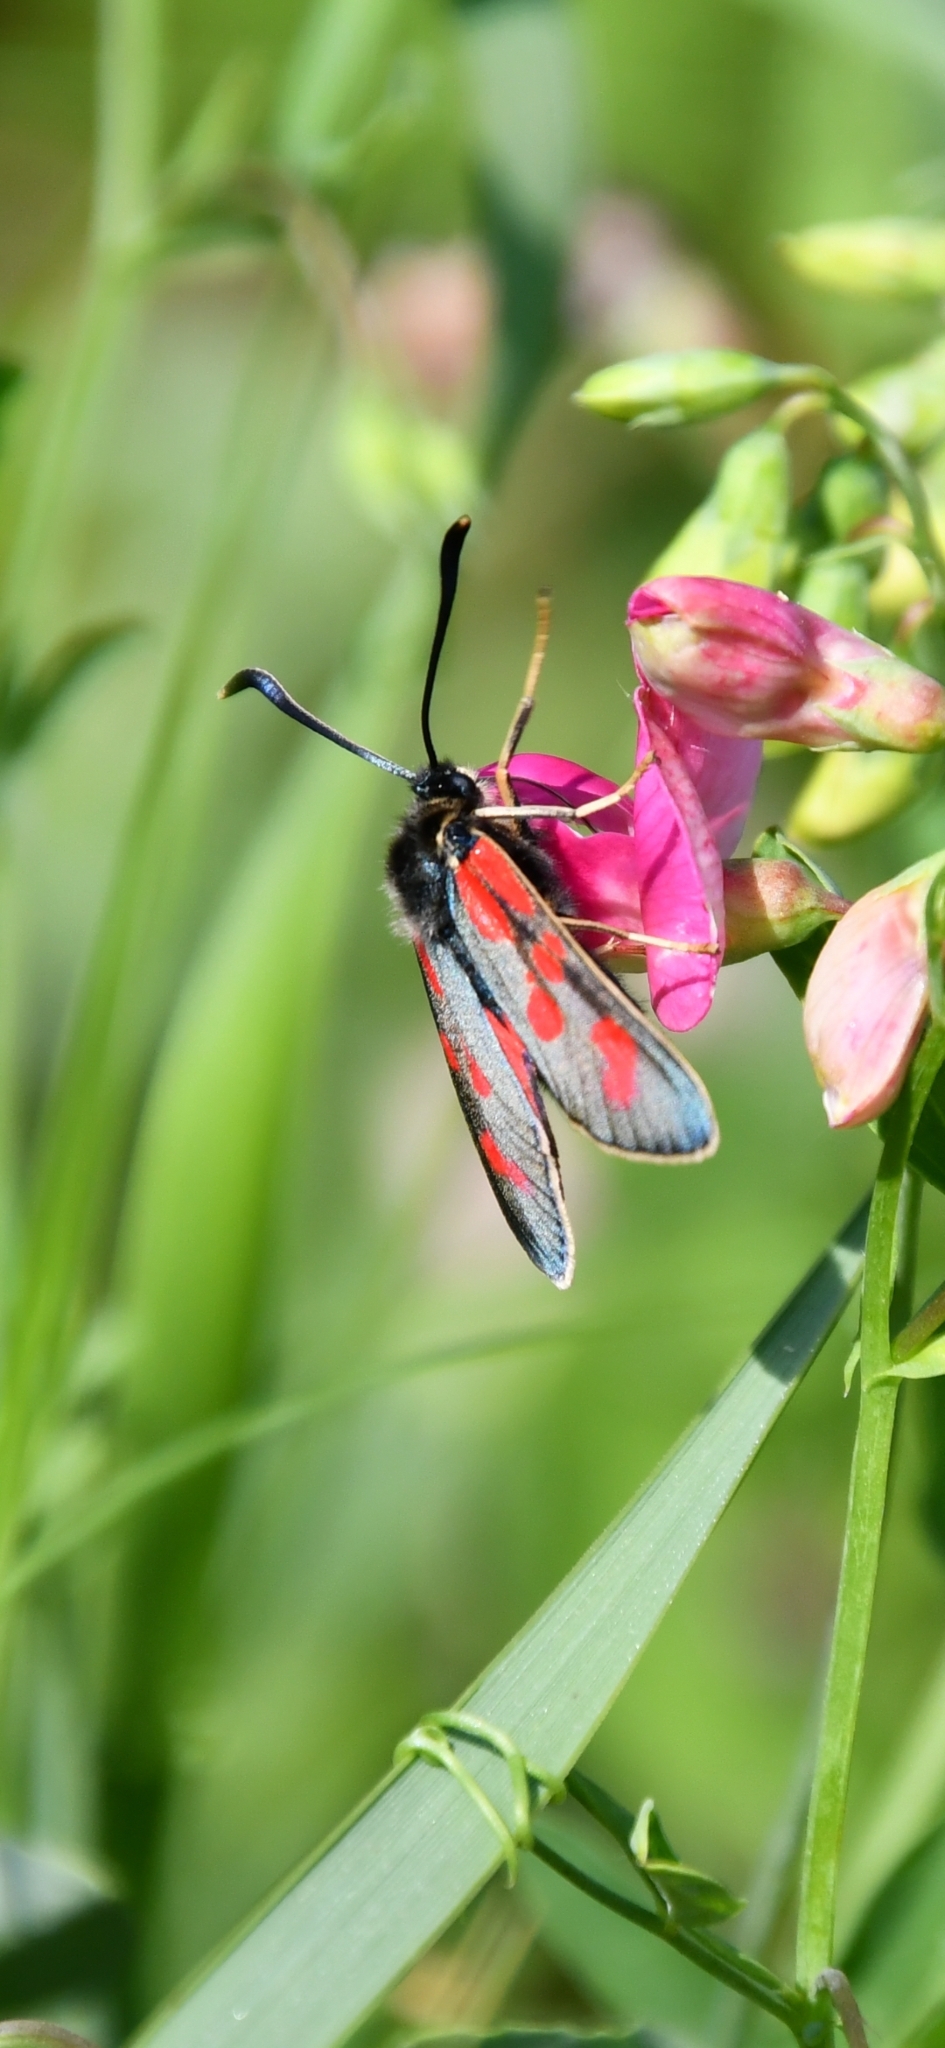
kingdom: Animalia
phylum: Arthropoda
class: Insecta
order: Lepidoptera
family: Zygaenidae
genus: Zygaena
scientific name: Zygaena loti
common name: Slender scotch burnet
